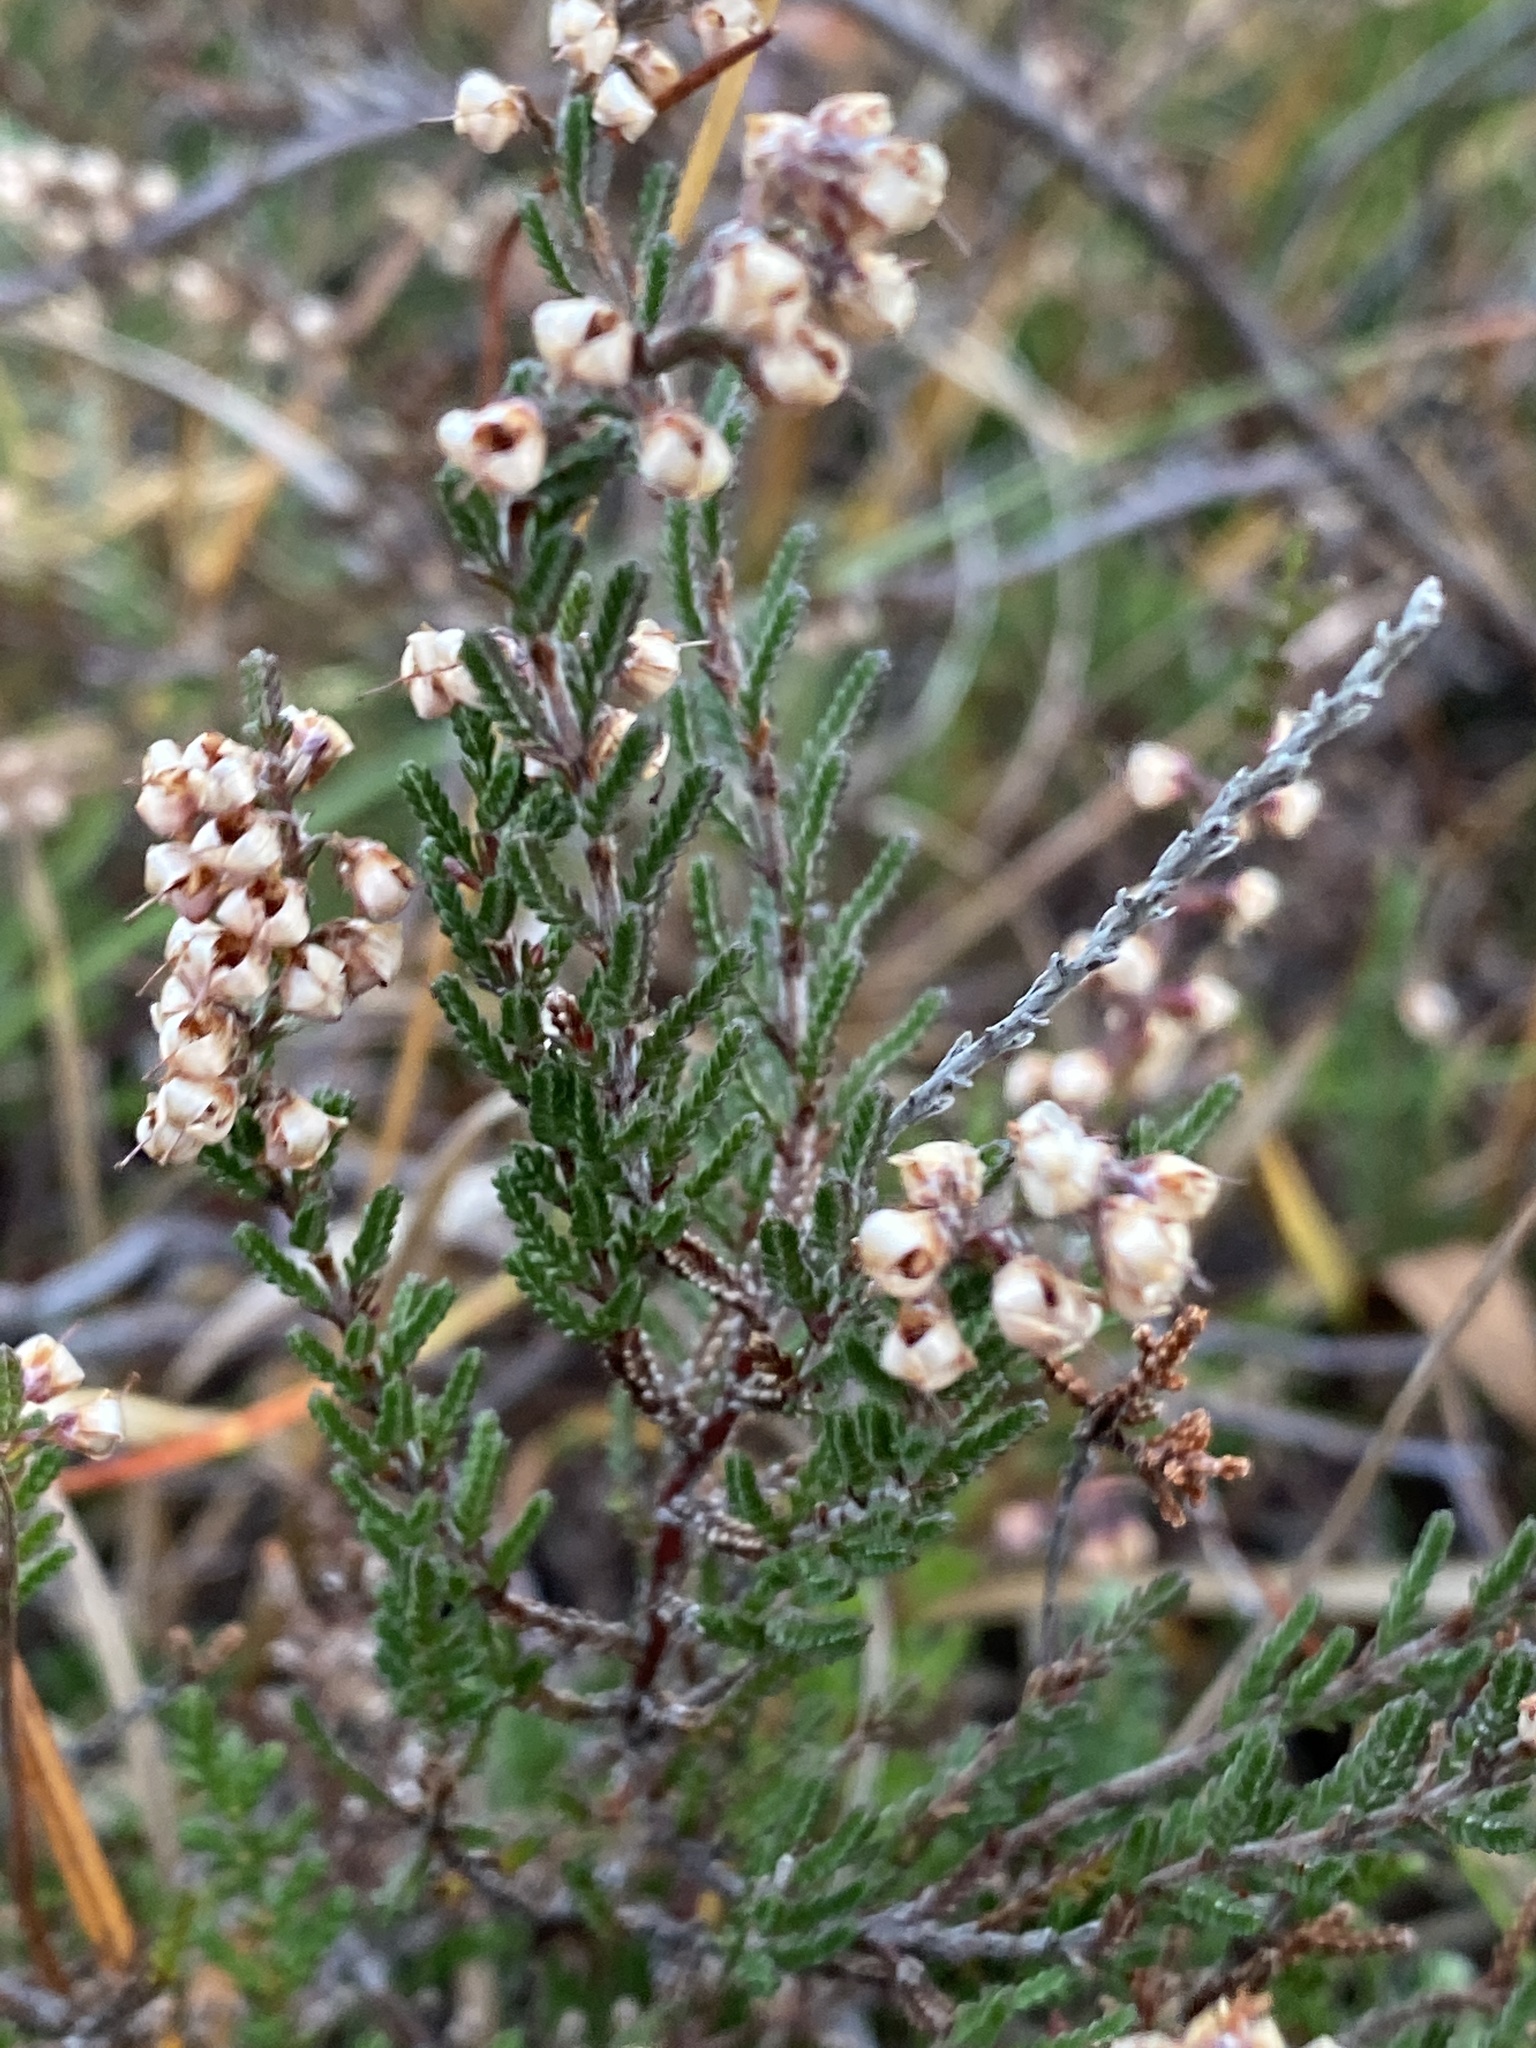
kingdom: Plantae
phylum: Tracheophyta
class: Magnoliopsida
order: Ericales
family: Ericaceae
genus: Calluna
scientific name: Calluna vulgaris
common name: Heather
